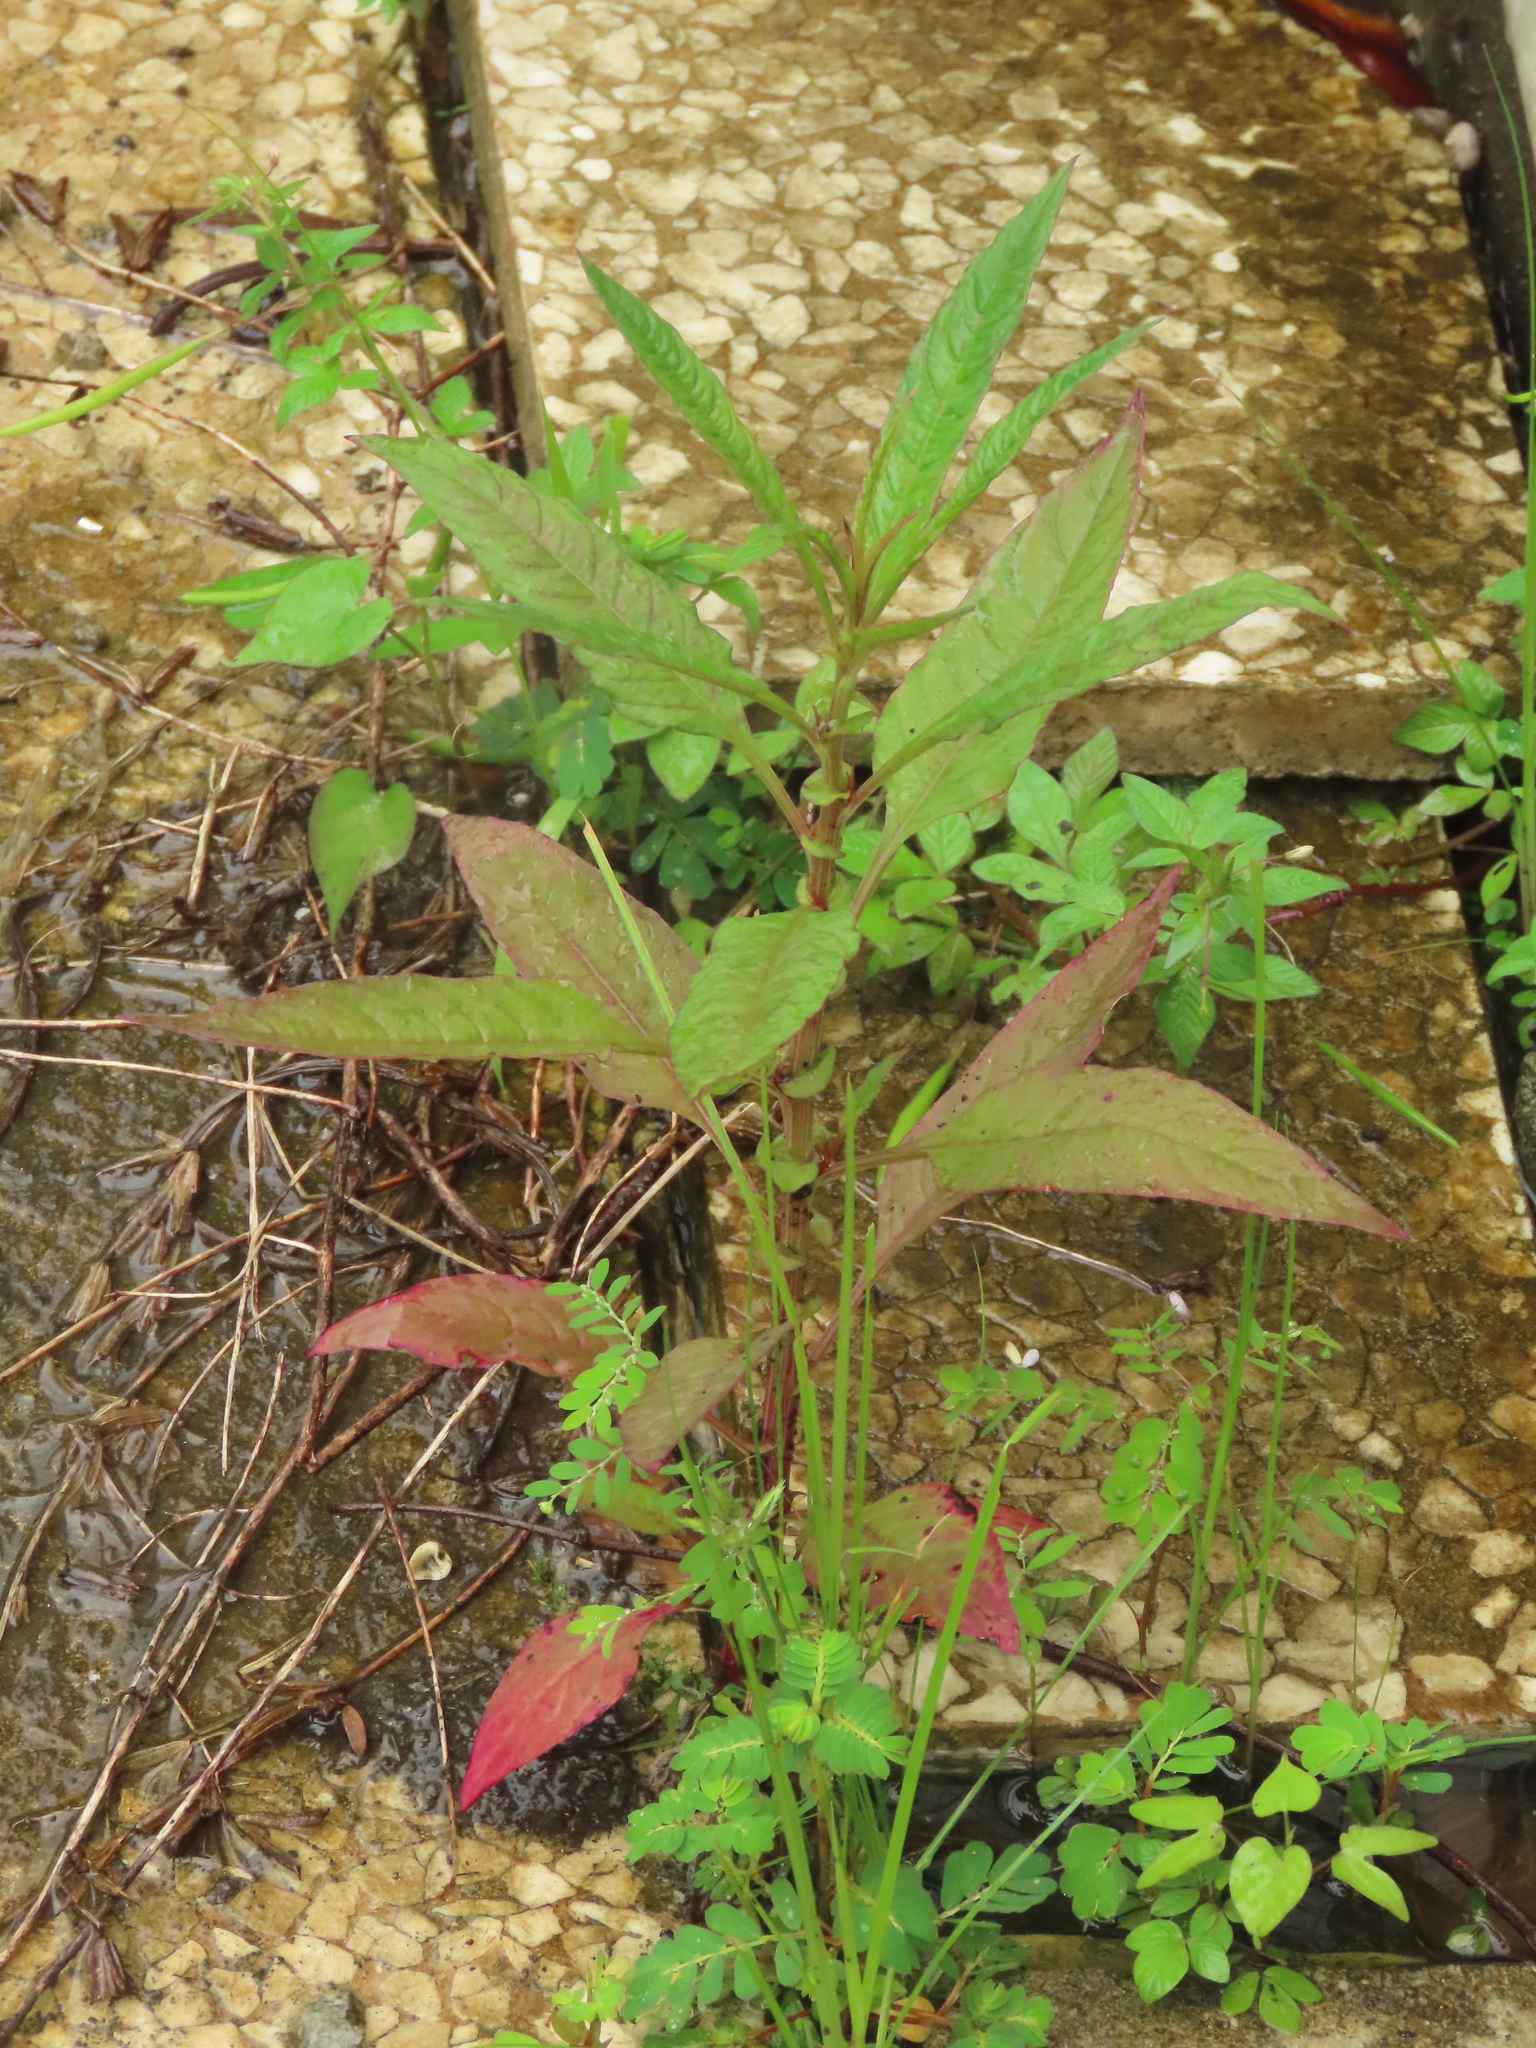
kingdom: Plantae
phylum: Tracheophyta
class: Magnoliopsida
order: Caryophyllales
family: Amaranthaceae
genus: Celosia
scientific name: Celosia argentea
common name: Feather cockscomb
